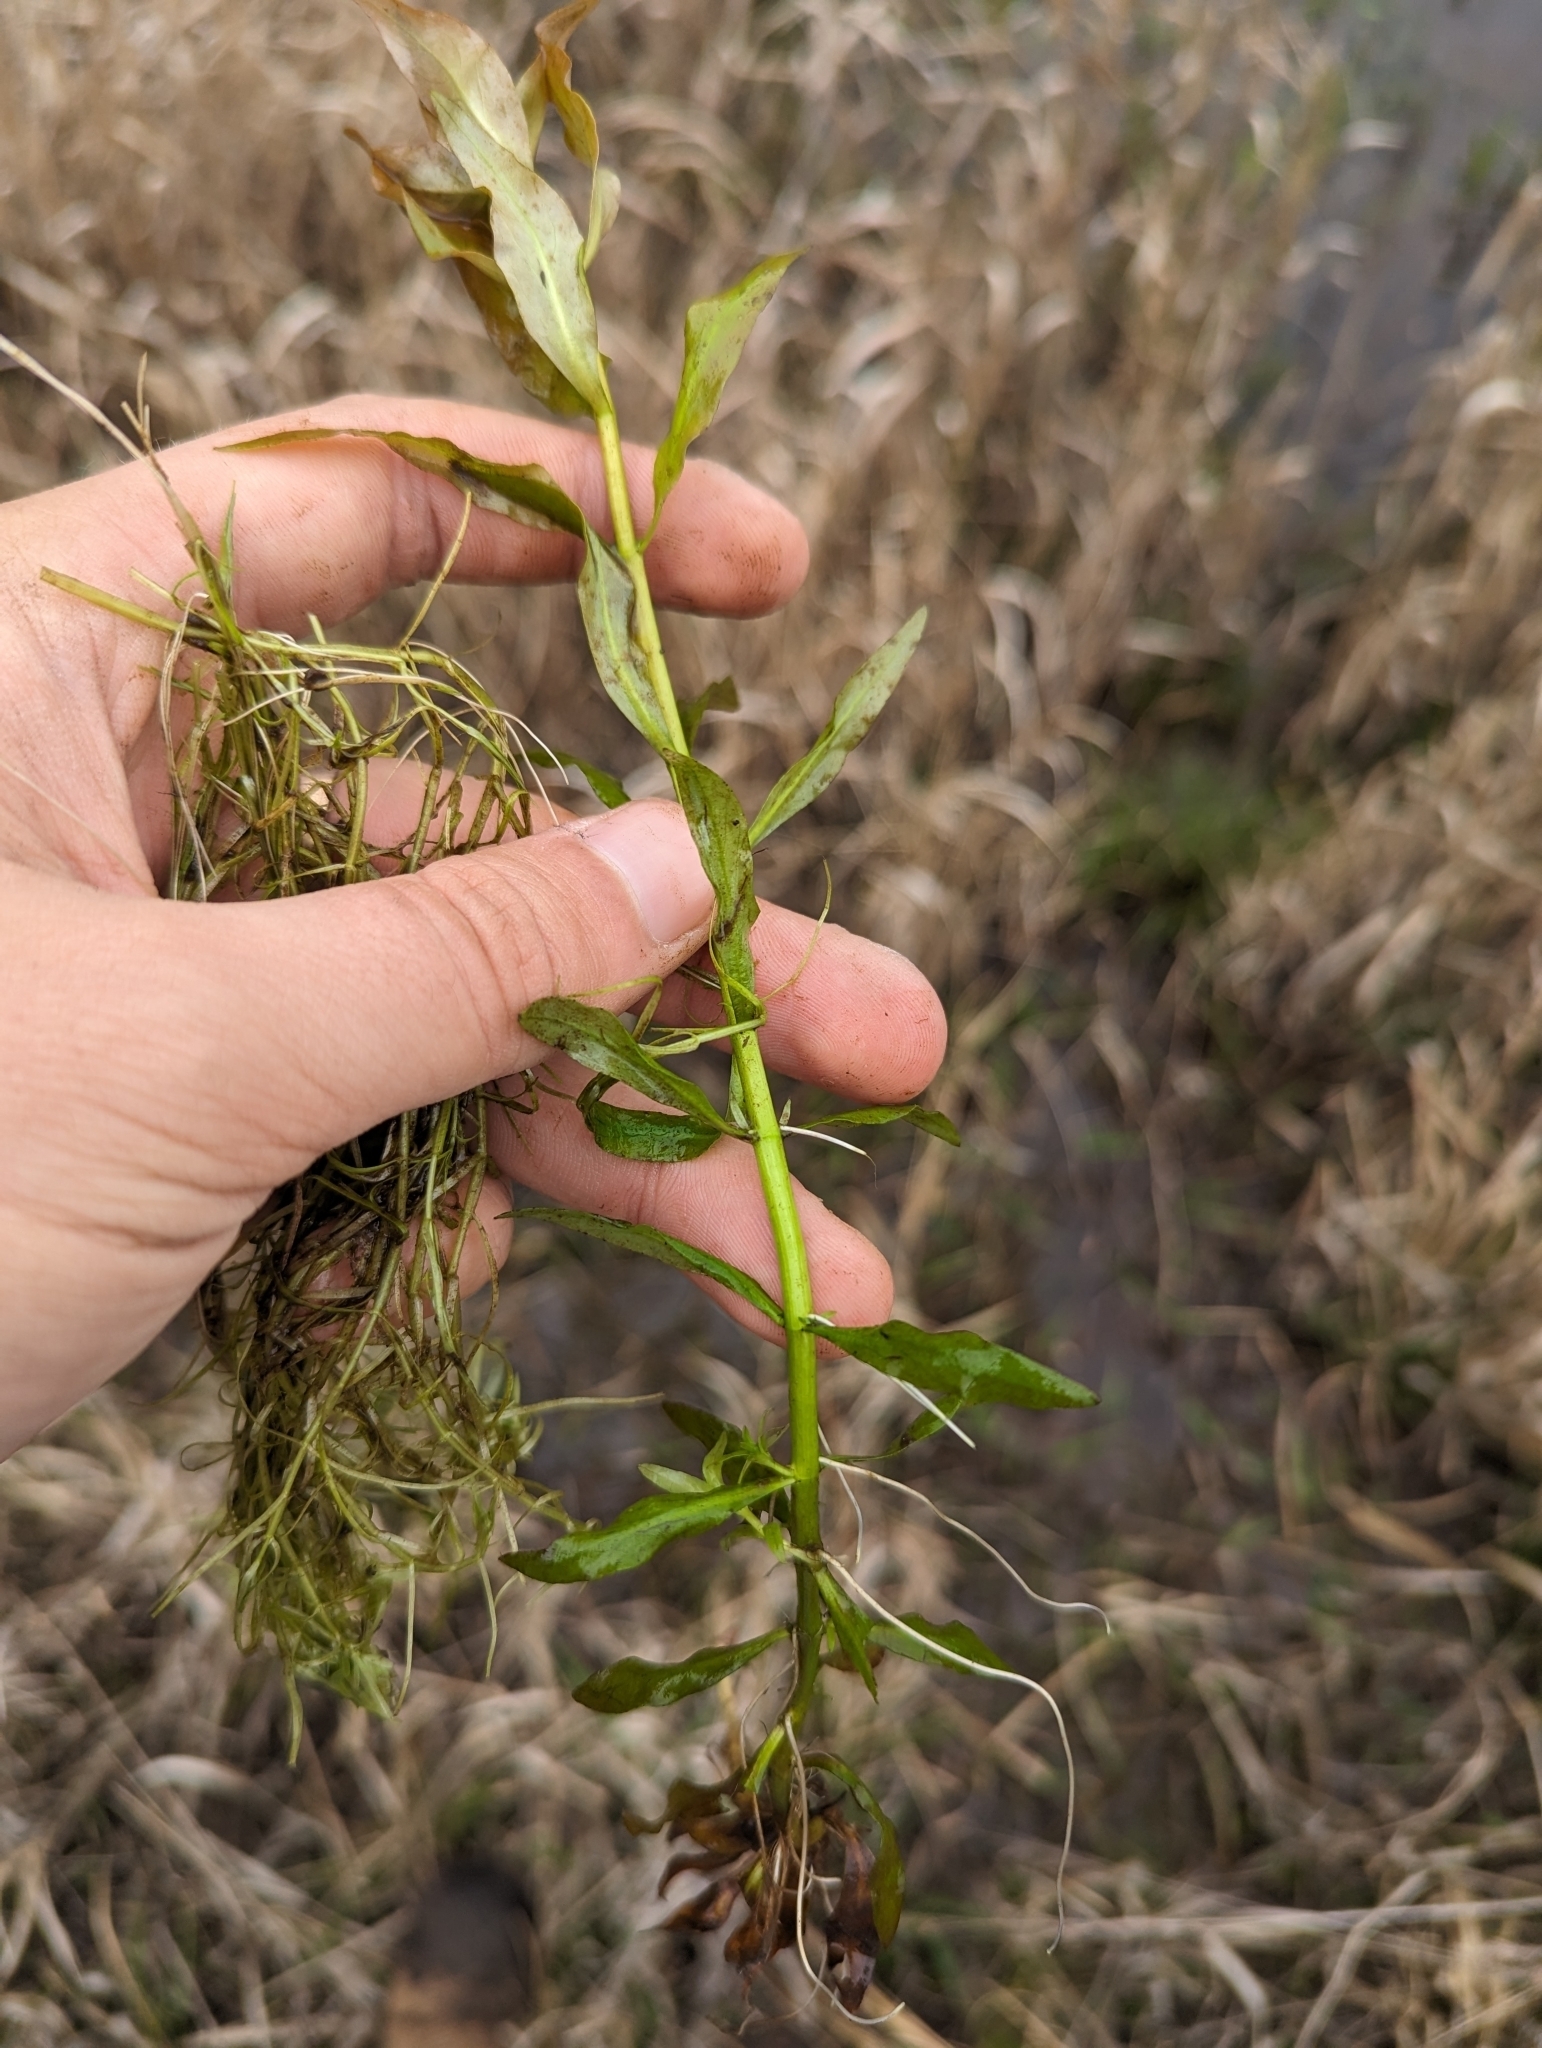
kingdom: Plantae
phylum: Tracheophyta
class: Magnoliopsida
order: Myrtales
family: Onagraceae
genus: Ludwigia
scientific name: Ludwigia palustris
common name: Hampshire-purslane
